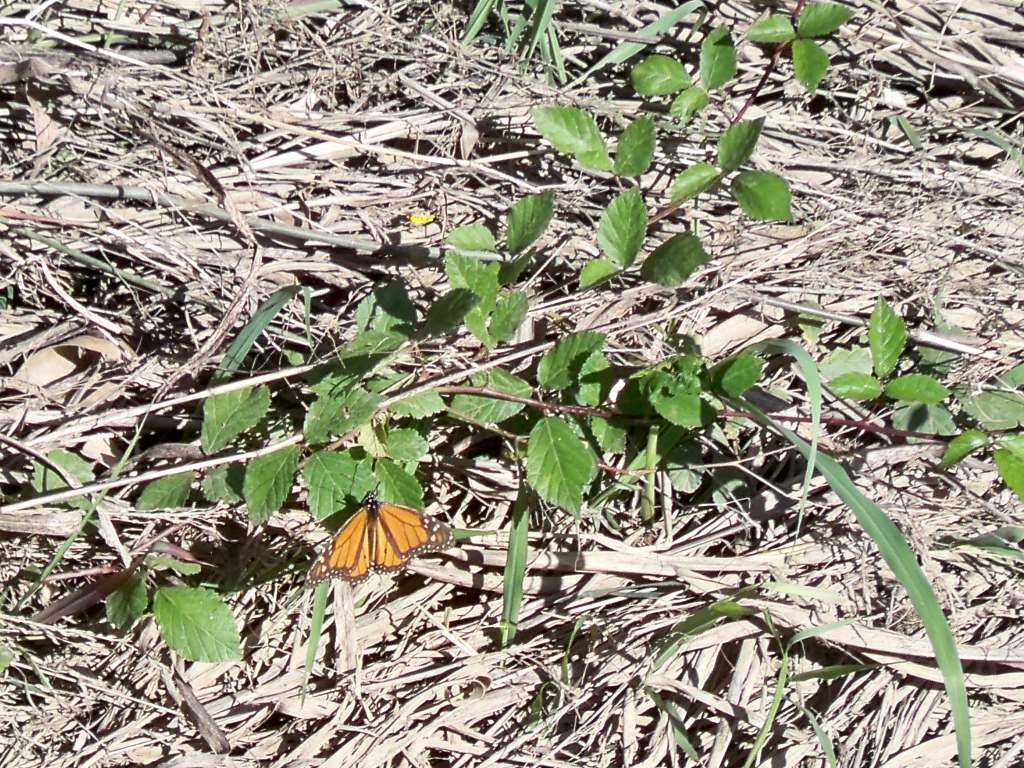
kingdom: Animalia
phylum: Arthropoda
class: Insecta
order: Lepidoptera
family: Nymphalidae
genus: Danaus
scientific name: Danaus plexippus
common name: Monarch
